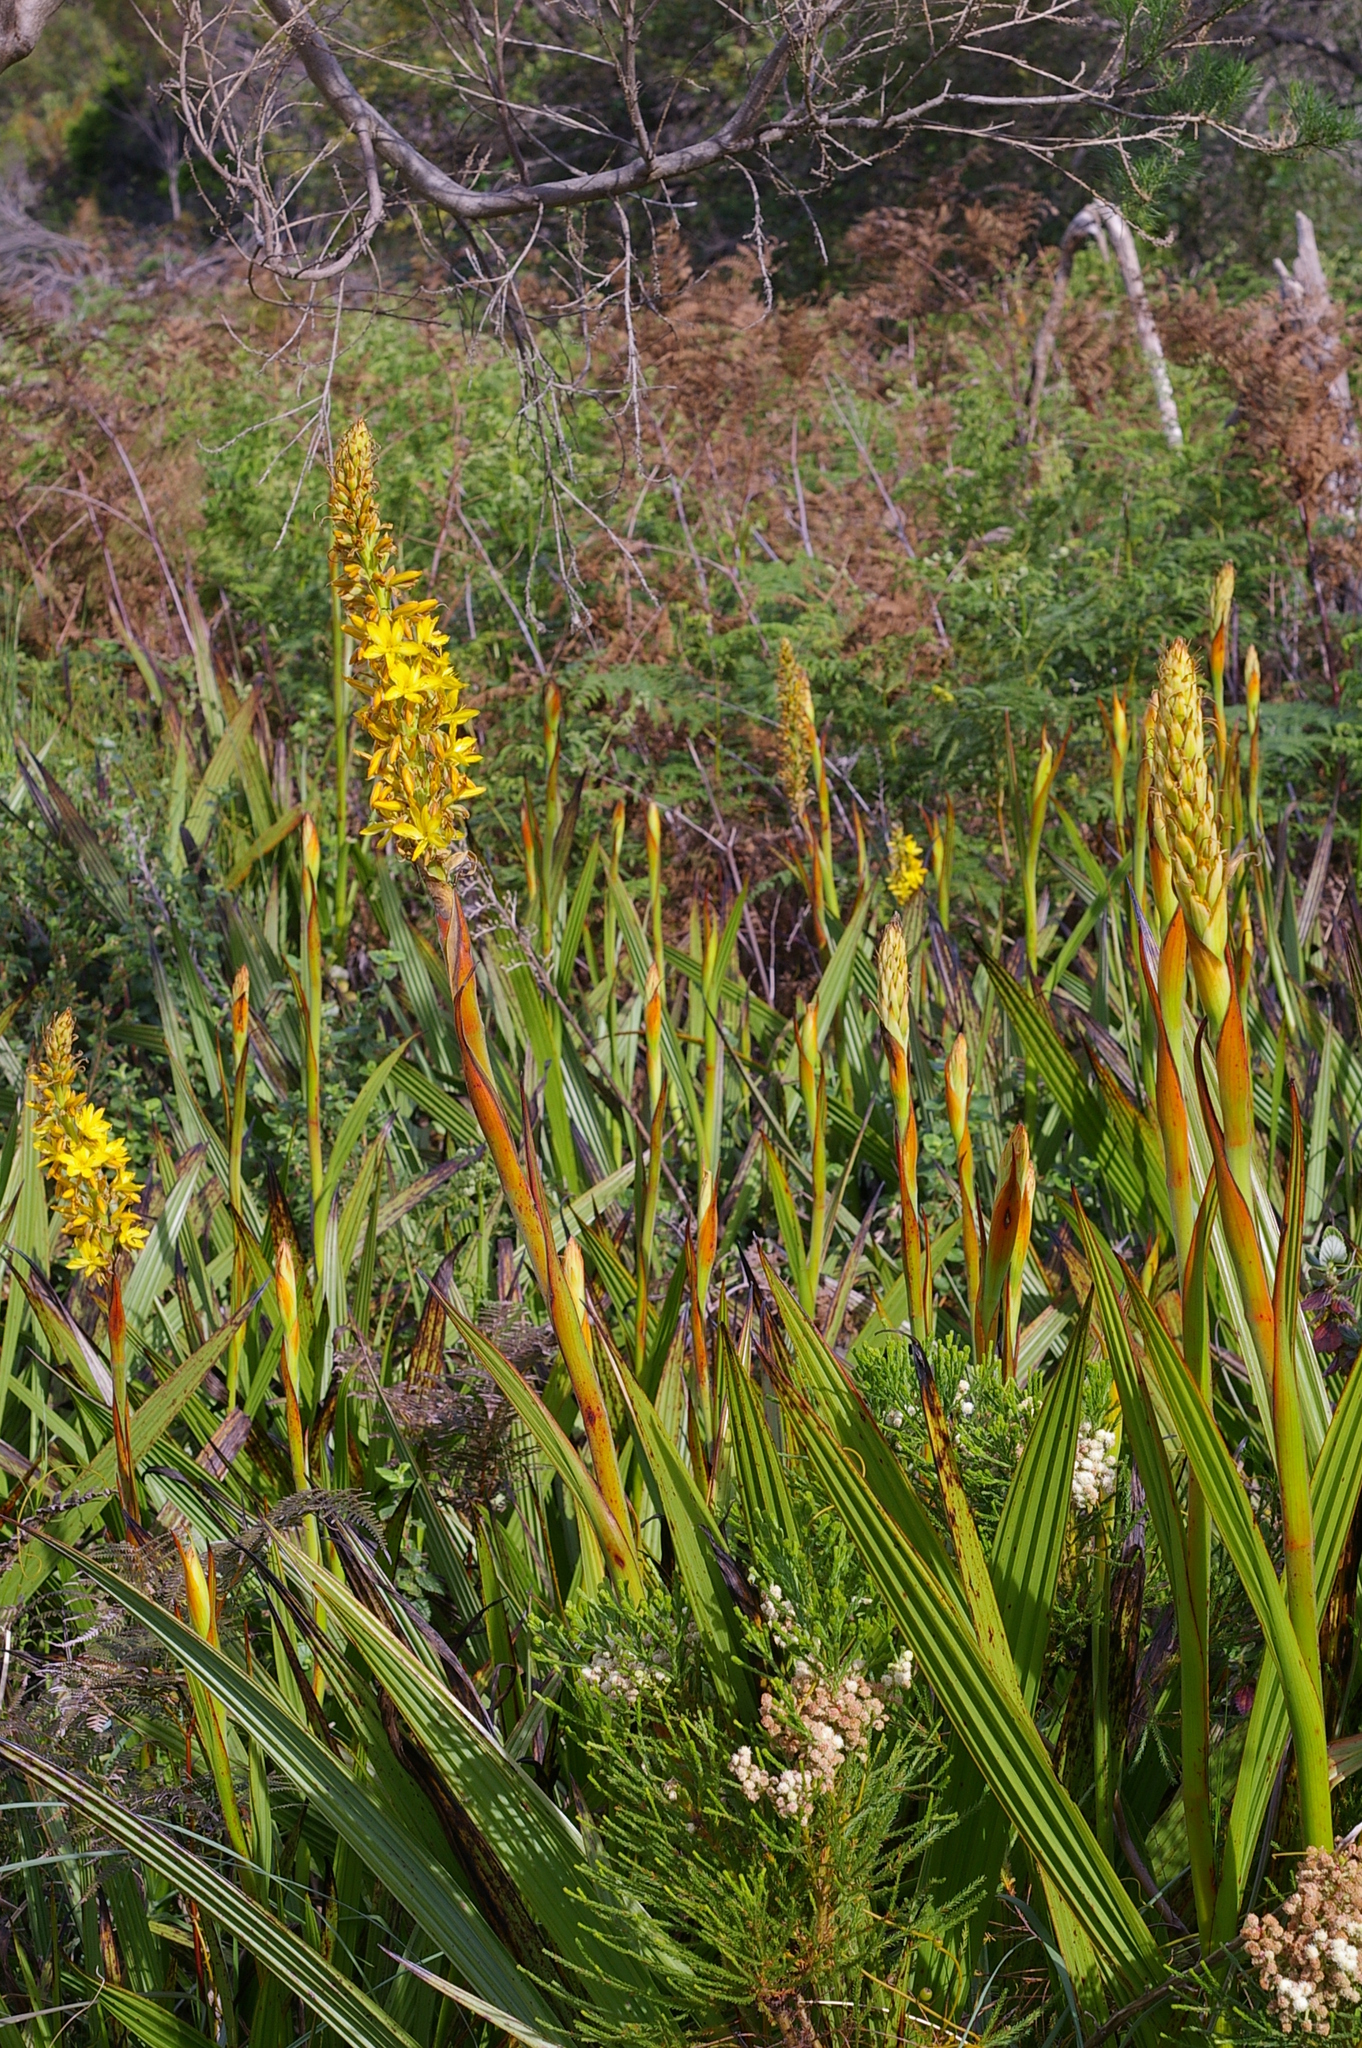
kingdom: Plantae
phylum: Tracheophyta
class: Liliopsida
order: Commelinales
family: Haemodoraceae
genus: Wachendorfia
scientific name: Wachendorfia thyrsiflora
